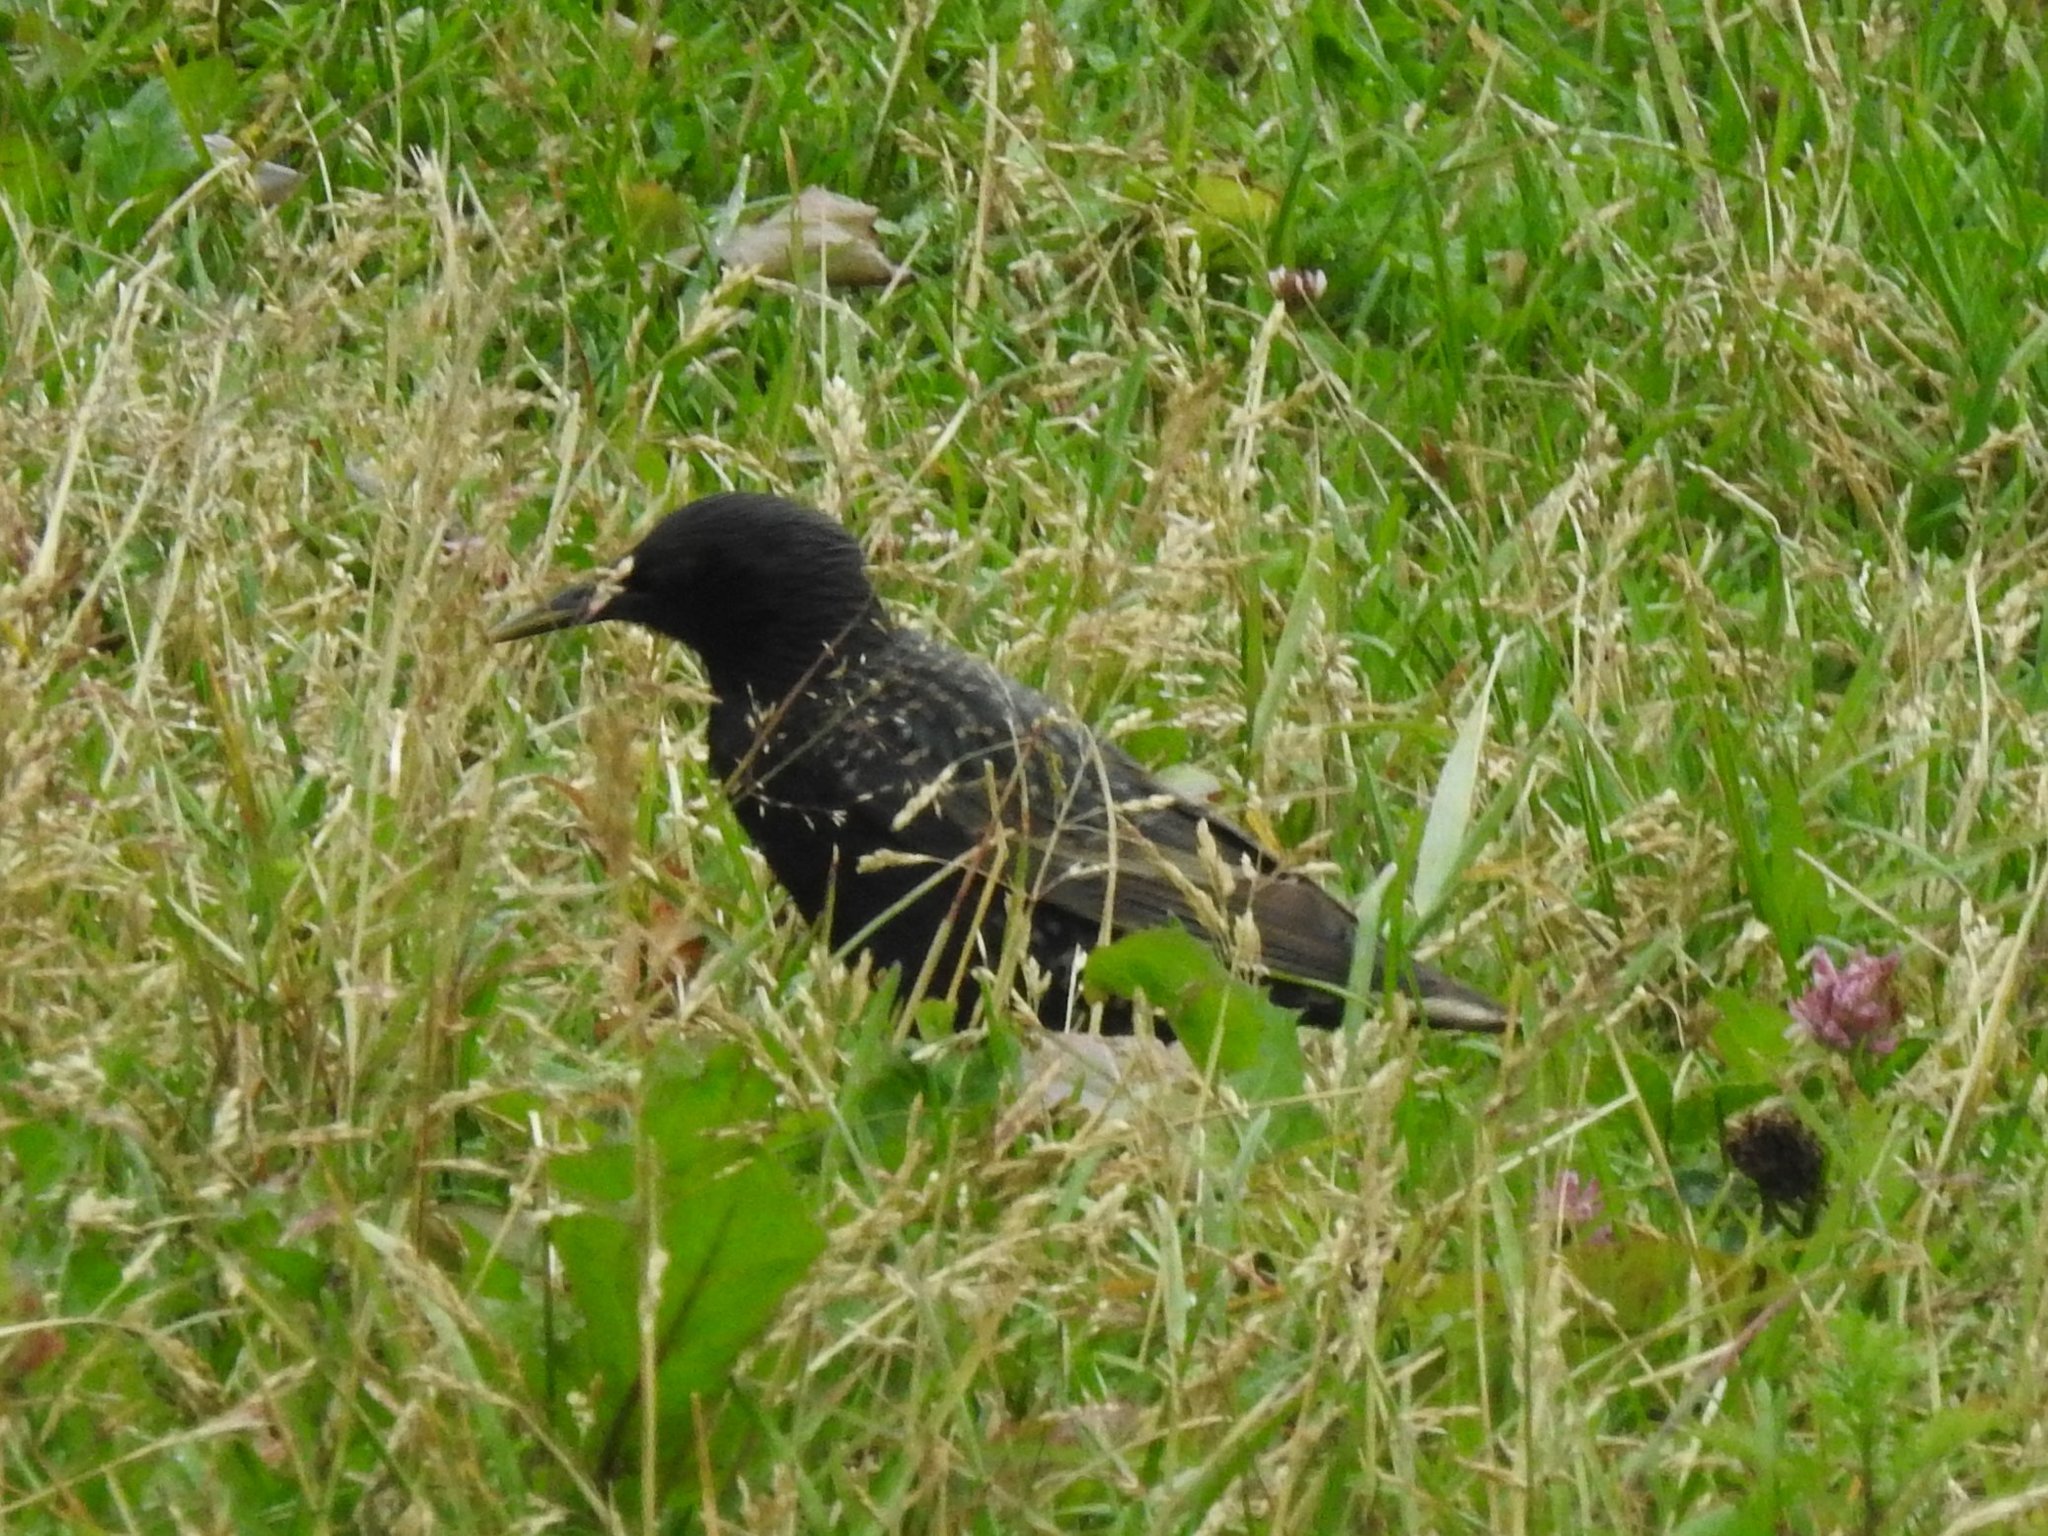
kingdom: Animalia
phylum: Chordata
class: Aves
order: Passeriformes
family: Sturnidae
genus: Sturnus
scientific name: Sturnus vulgaris
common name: Common starling
